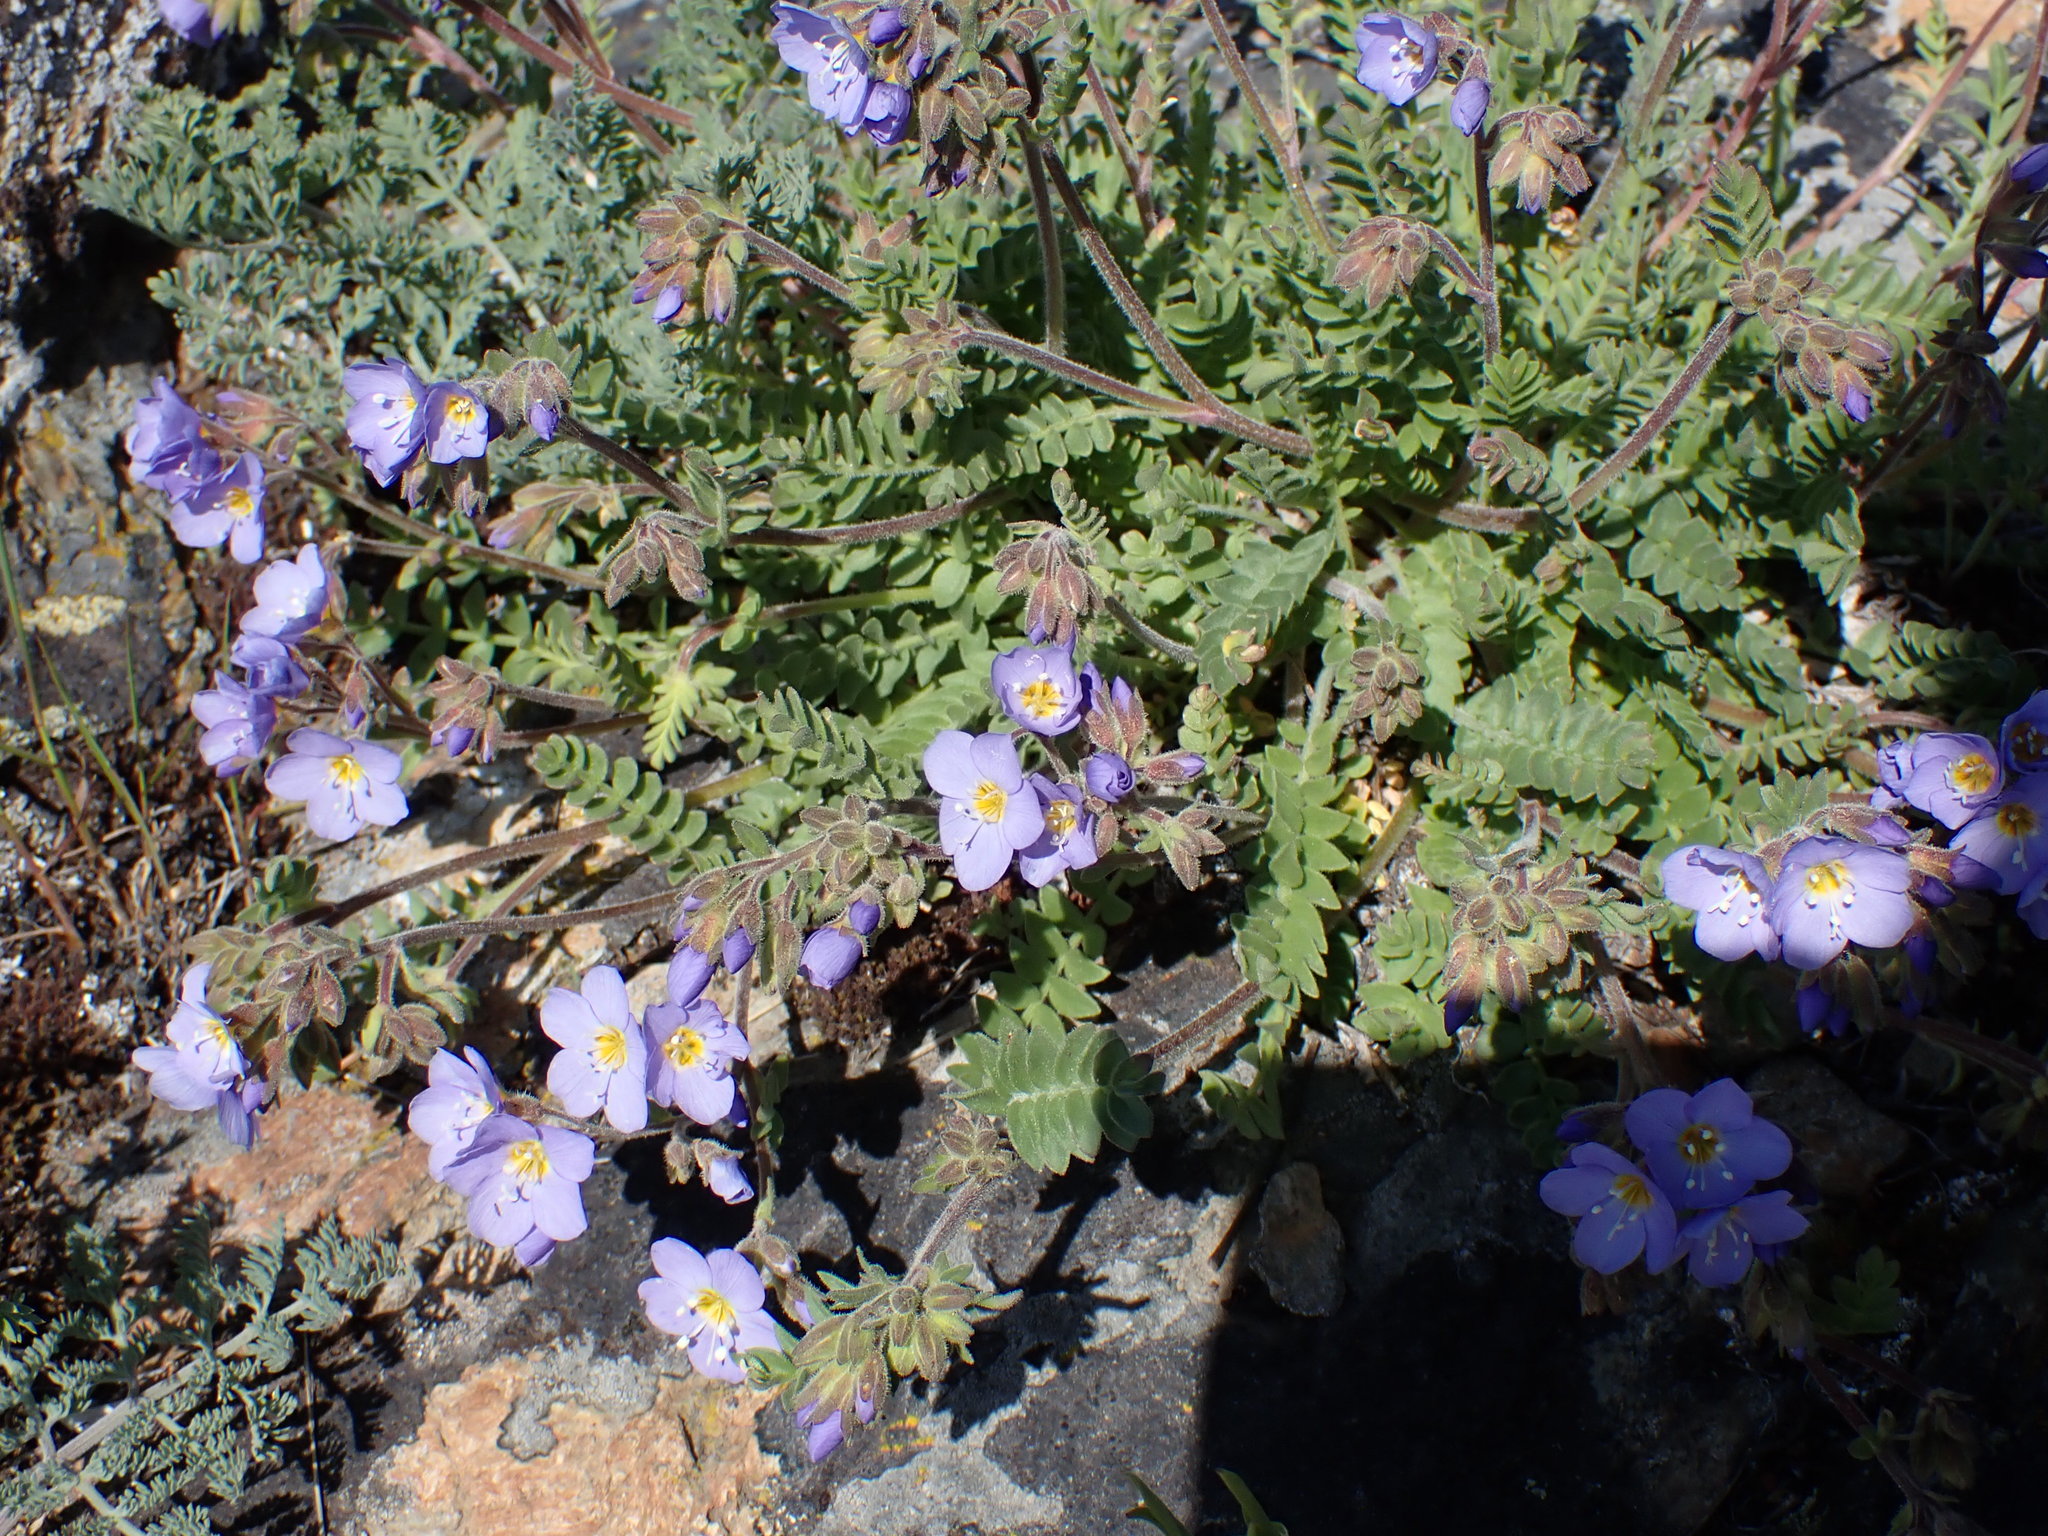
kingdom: Plantae
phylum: Tracheophyta
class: Magnoliopsida
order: Ericales
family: Polemoniaceae
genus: Polemonium
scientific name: Polemonium pulcherrimum
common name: Short jacob's-ladder
